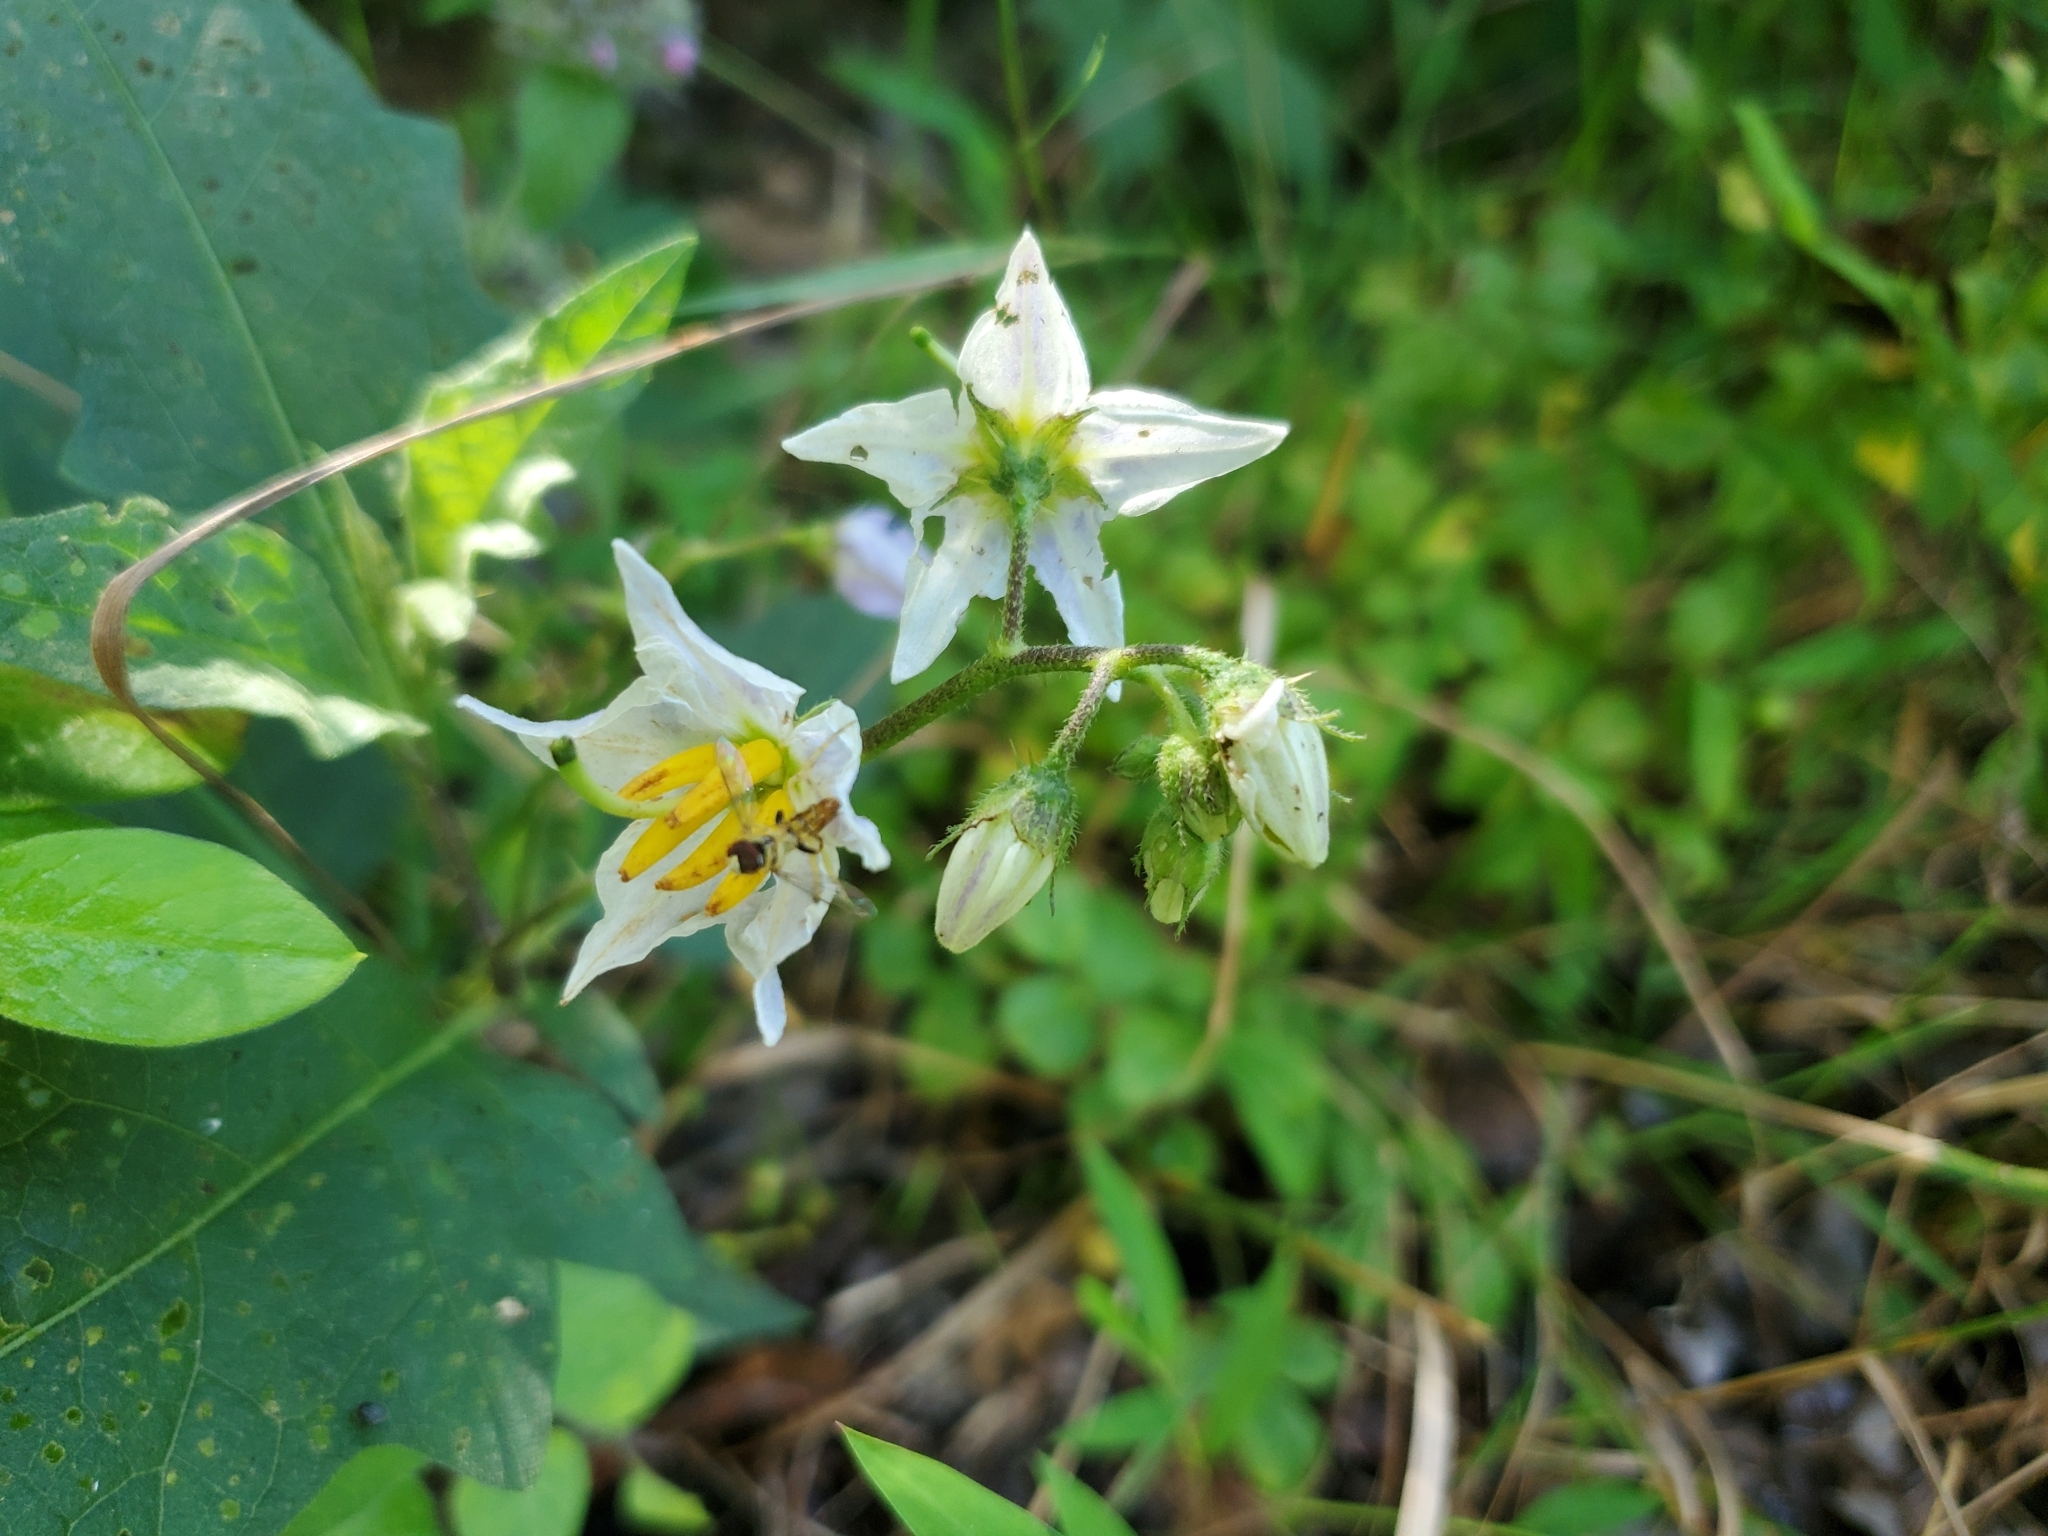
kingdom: Plantae
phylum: Tracheophyta
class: Magnoliopsida
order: Solanales
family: Solanaceae
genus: Solanum
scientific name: Solanum carolinense
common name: Horse-nettle
